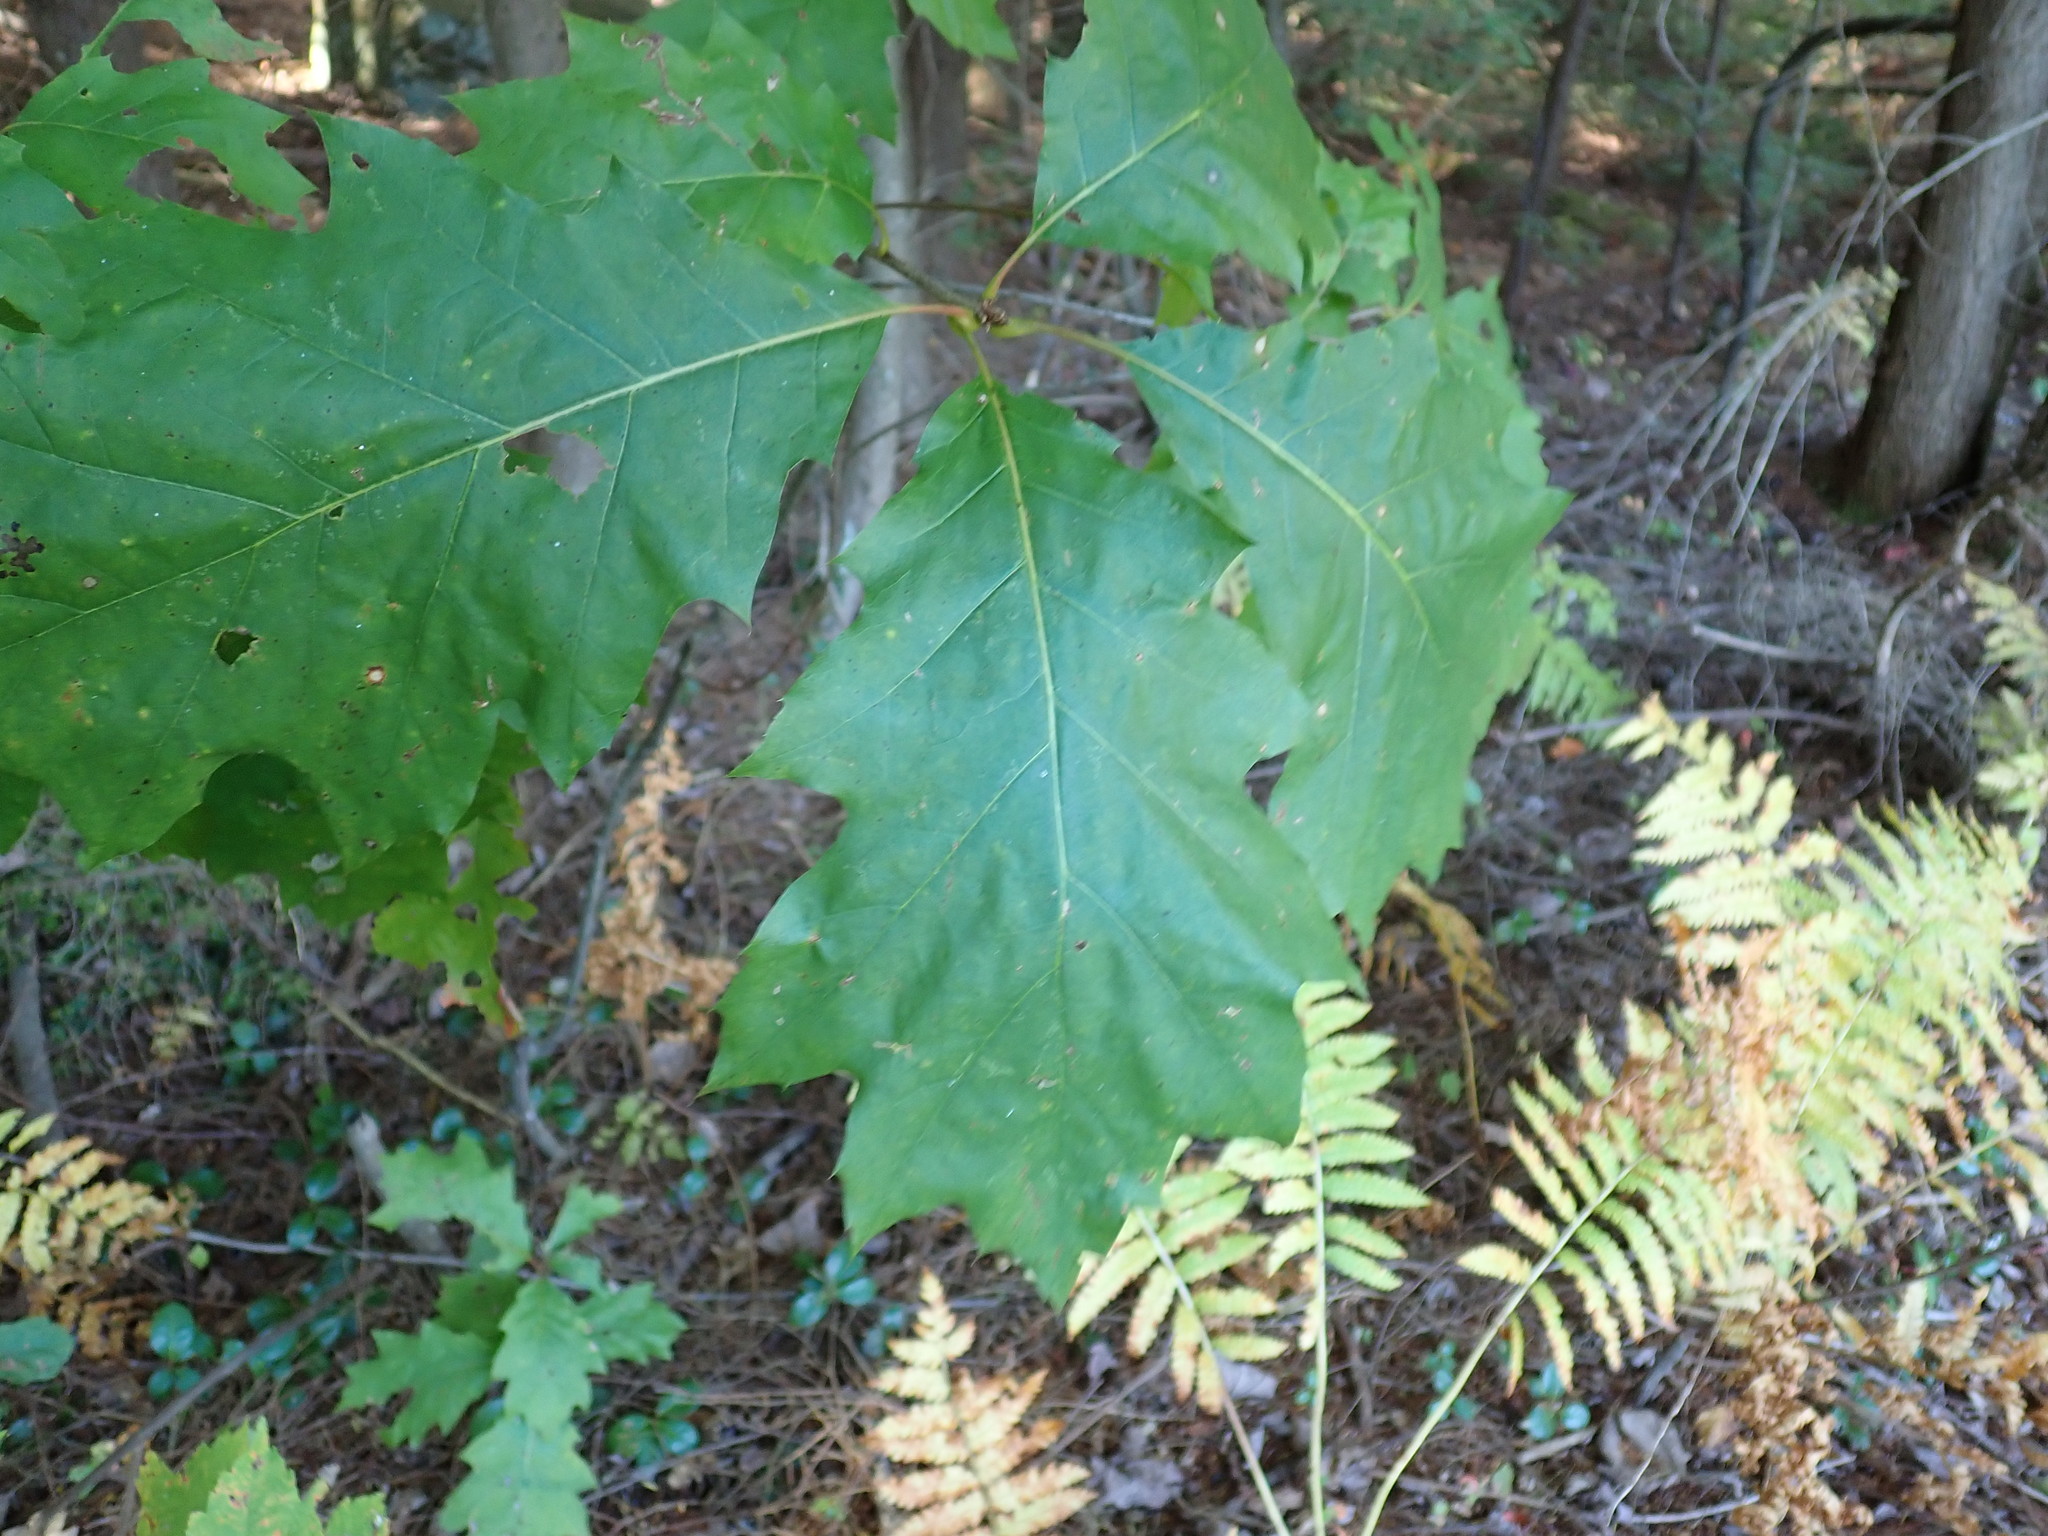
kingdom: Plantae
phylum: Tracheophyta
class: Magnoliopsida
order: Fagales
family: Fagaceae
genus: Quercus
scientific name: Quercus rubra
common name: Red oak
